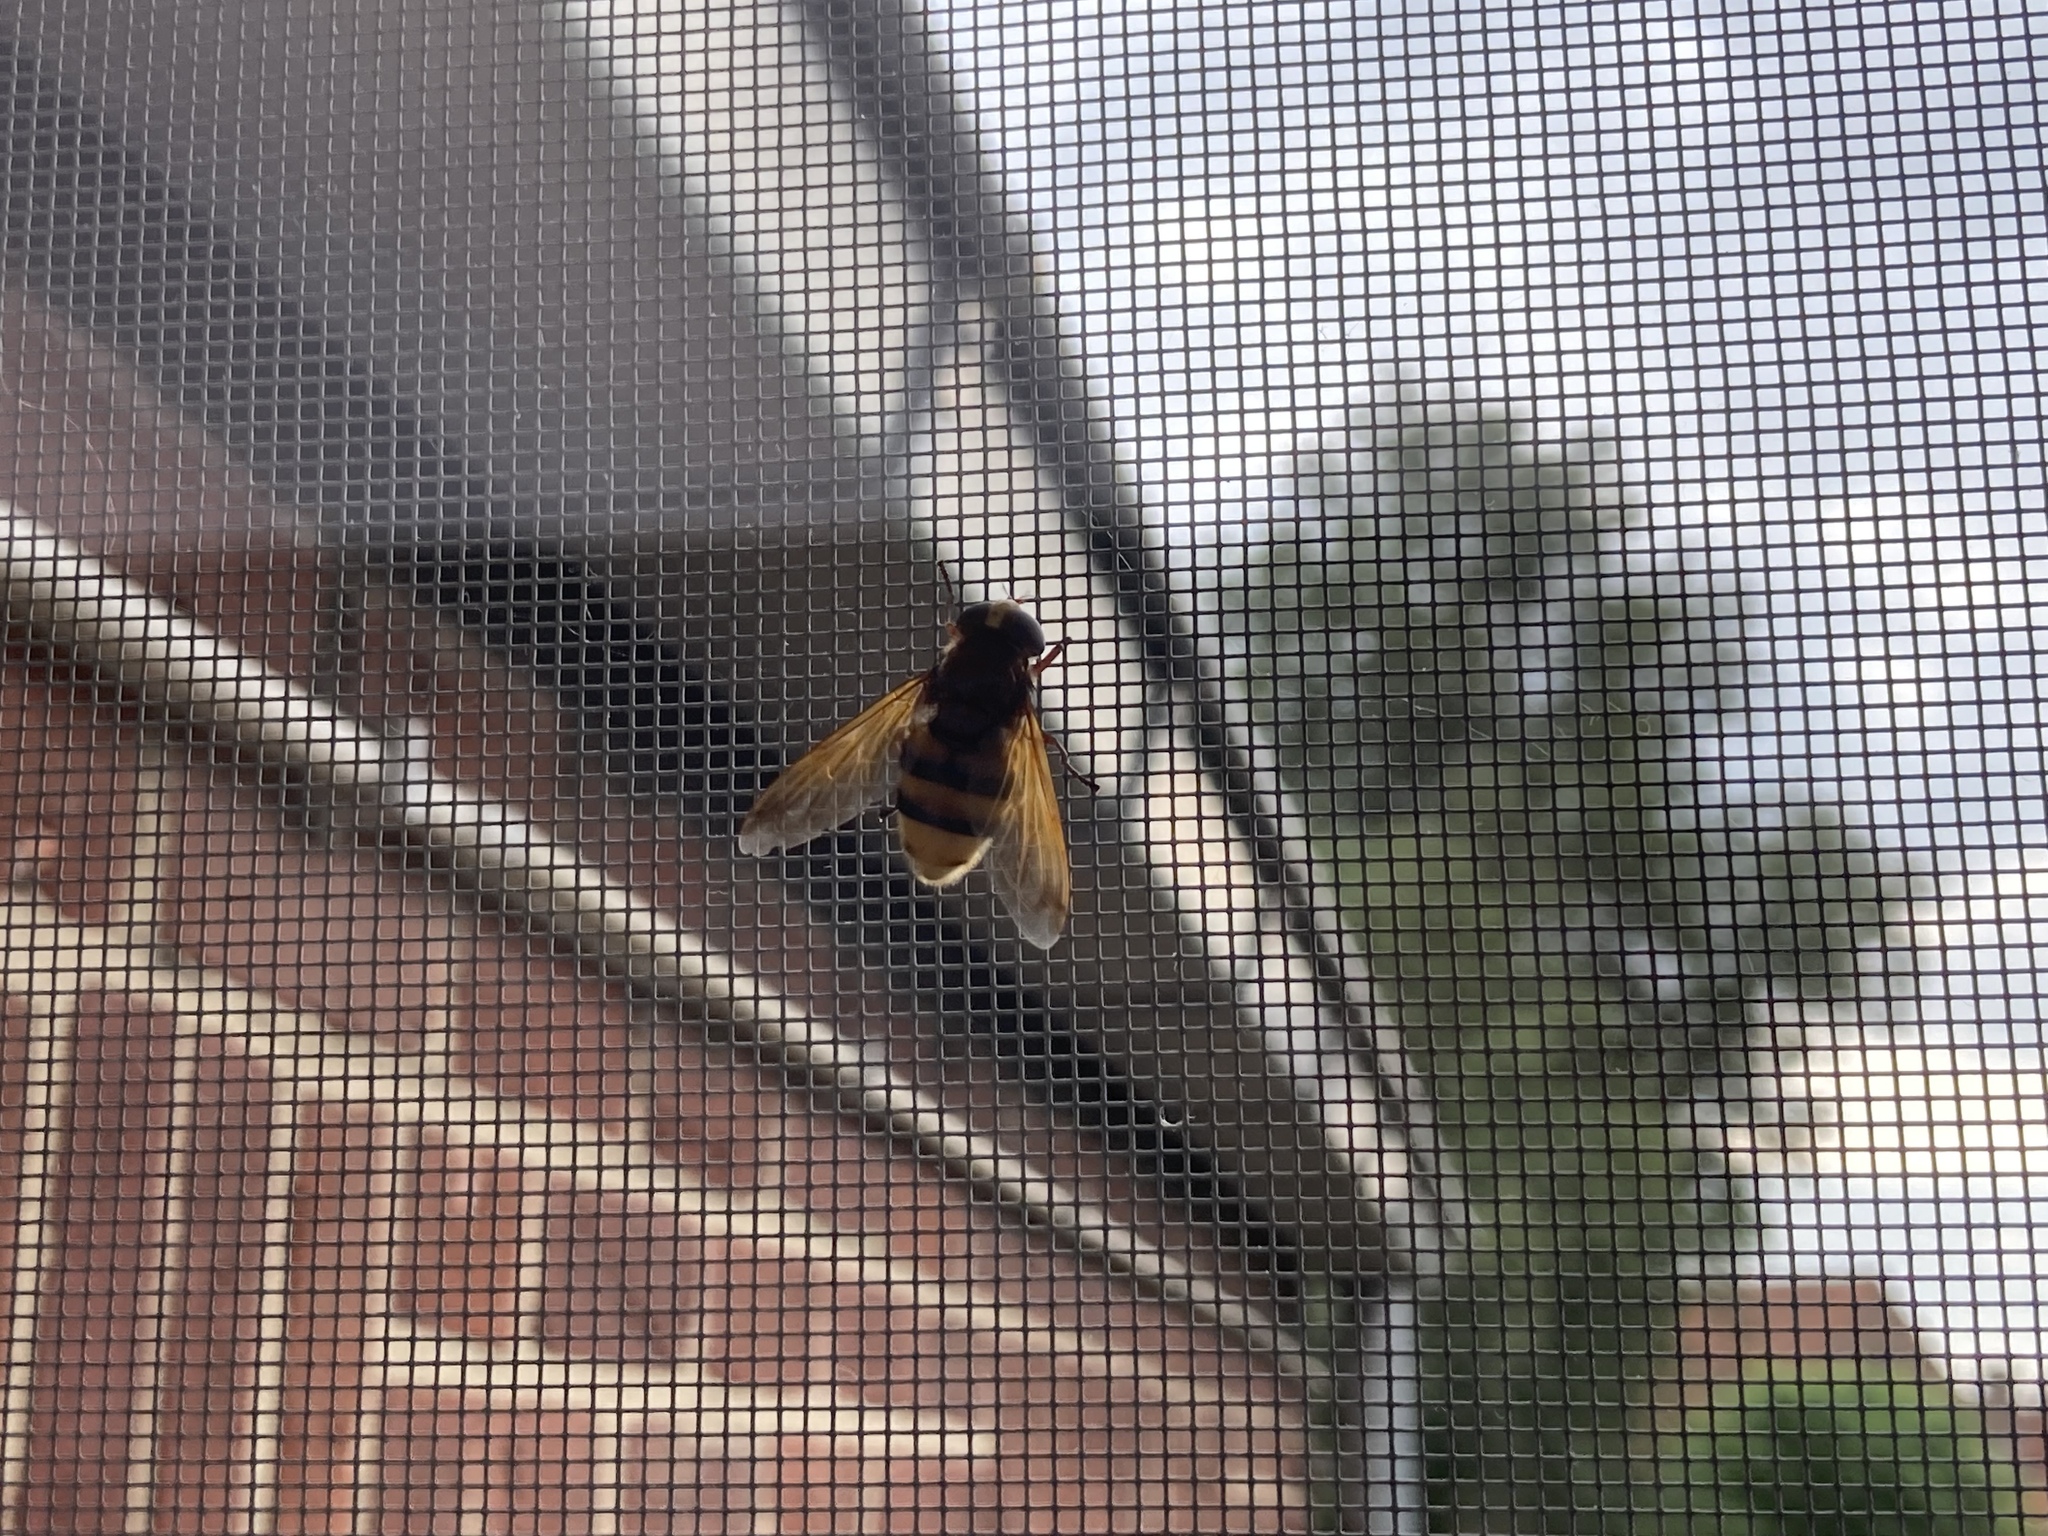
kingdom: Animalia
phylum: Arthropoda
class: Insecta
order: Diptera
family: Syrphidae
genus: Volucella
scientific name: Volucella zonaria
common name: Hornet hoverfly
